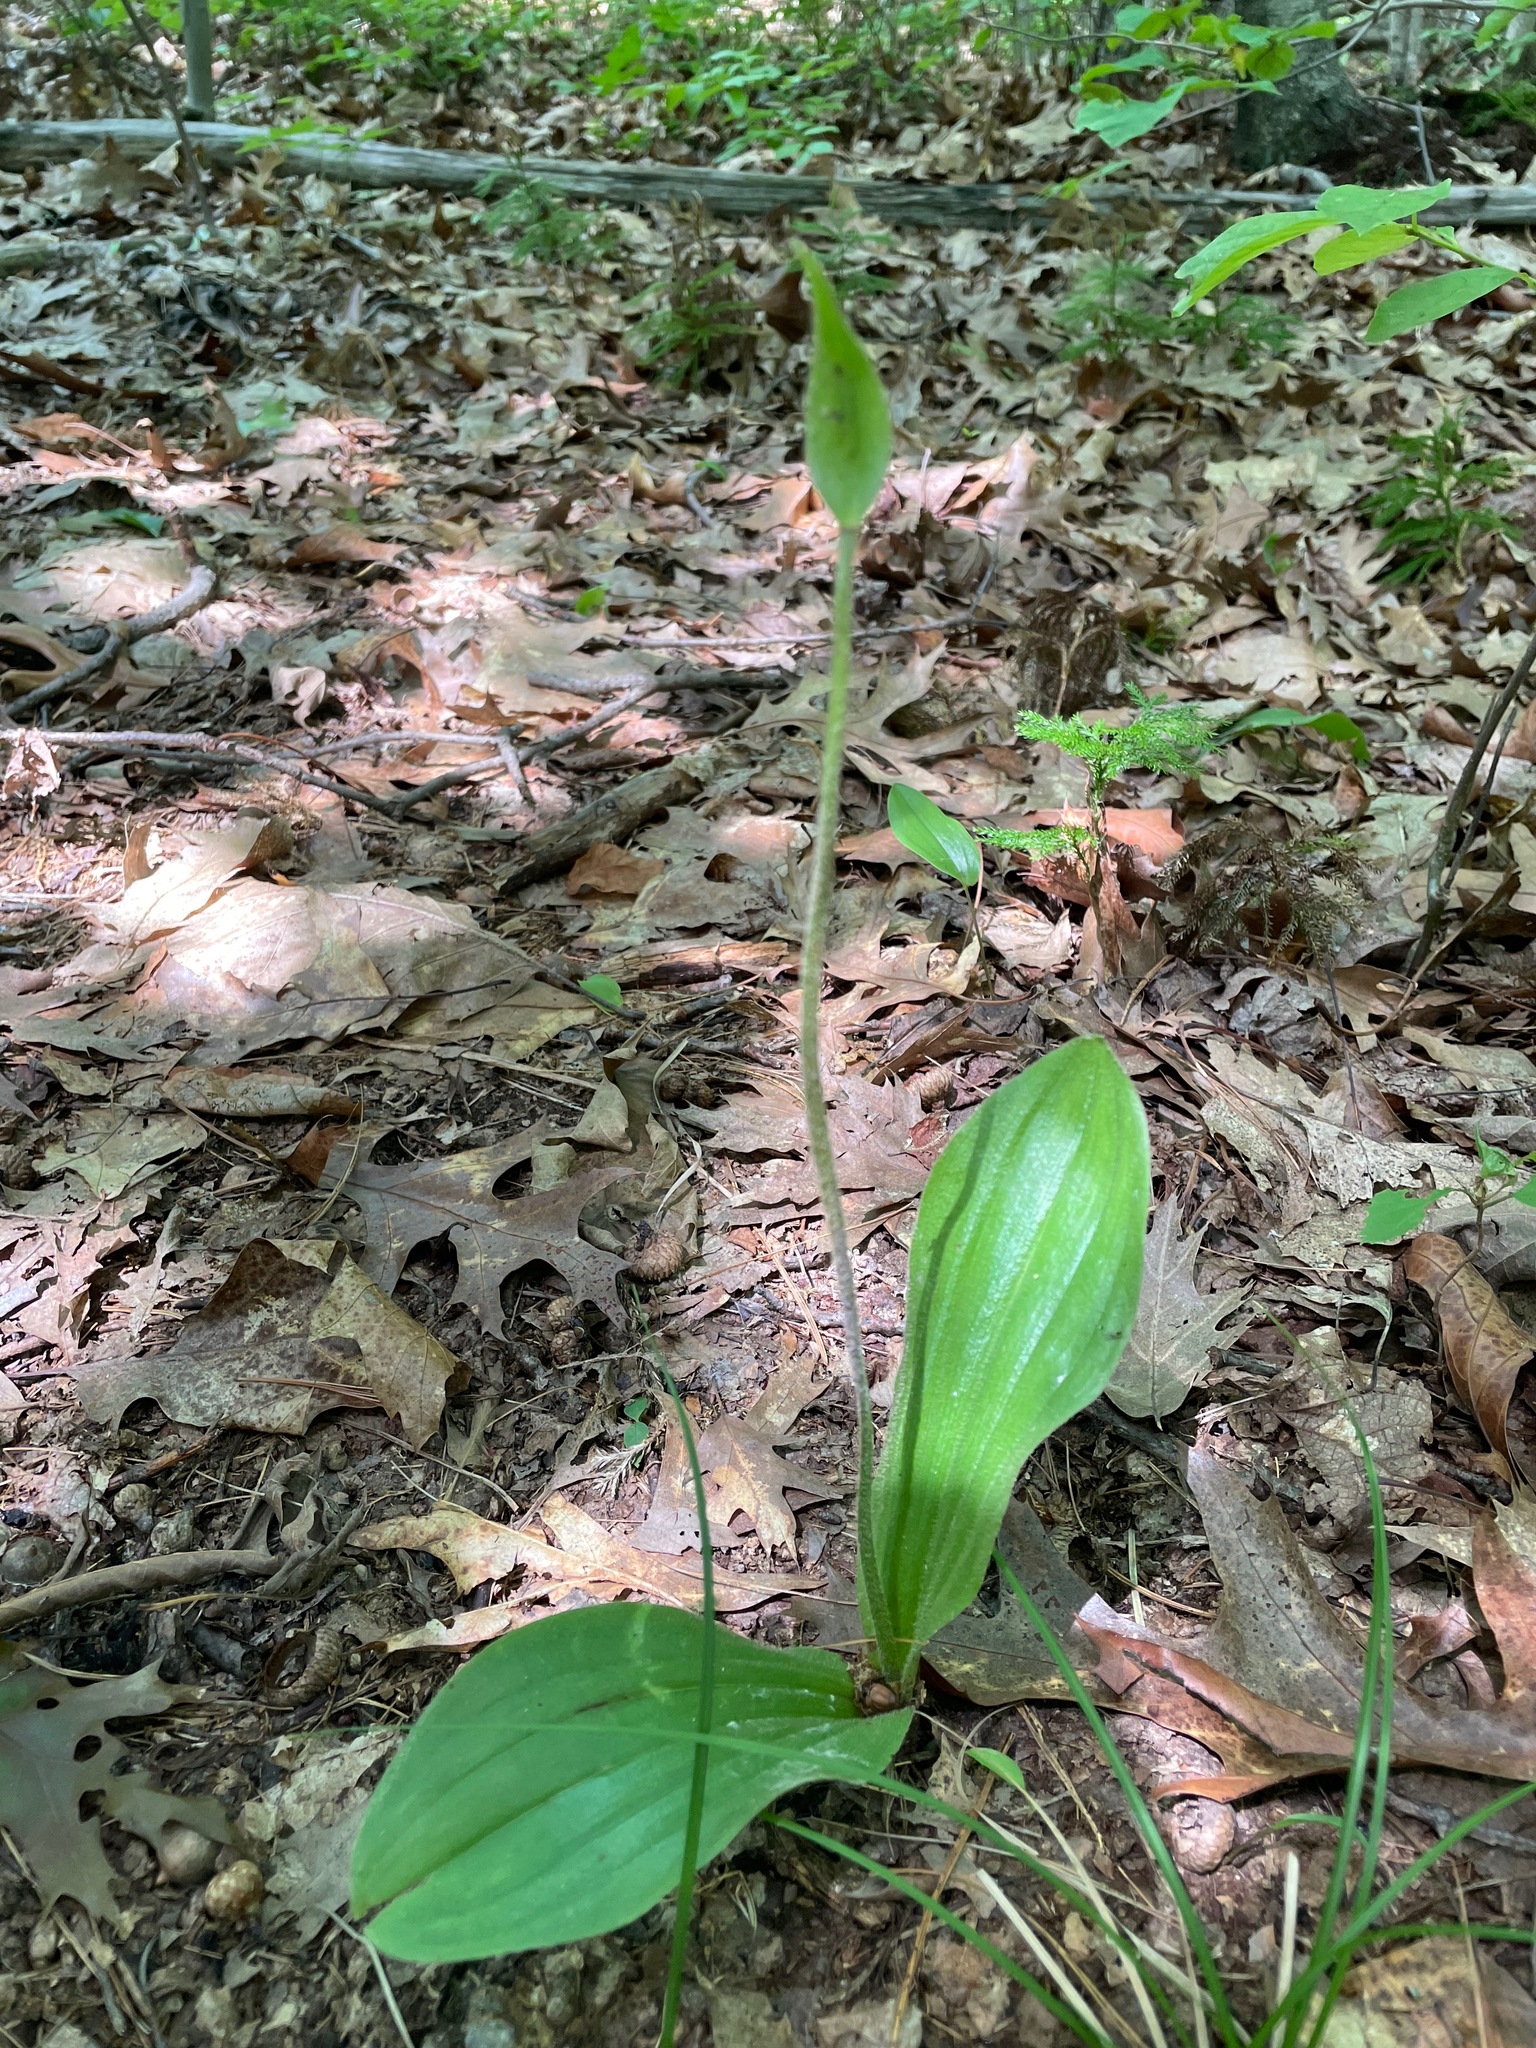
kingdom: Plantae
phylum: Tracheophyta
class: Liliopsida
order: Asparagales
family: Orchidaceae
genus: Cypripedium
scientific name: Cypripedium acaule
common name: Pink lady's-slipper
